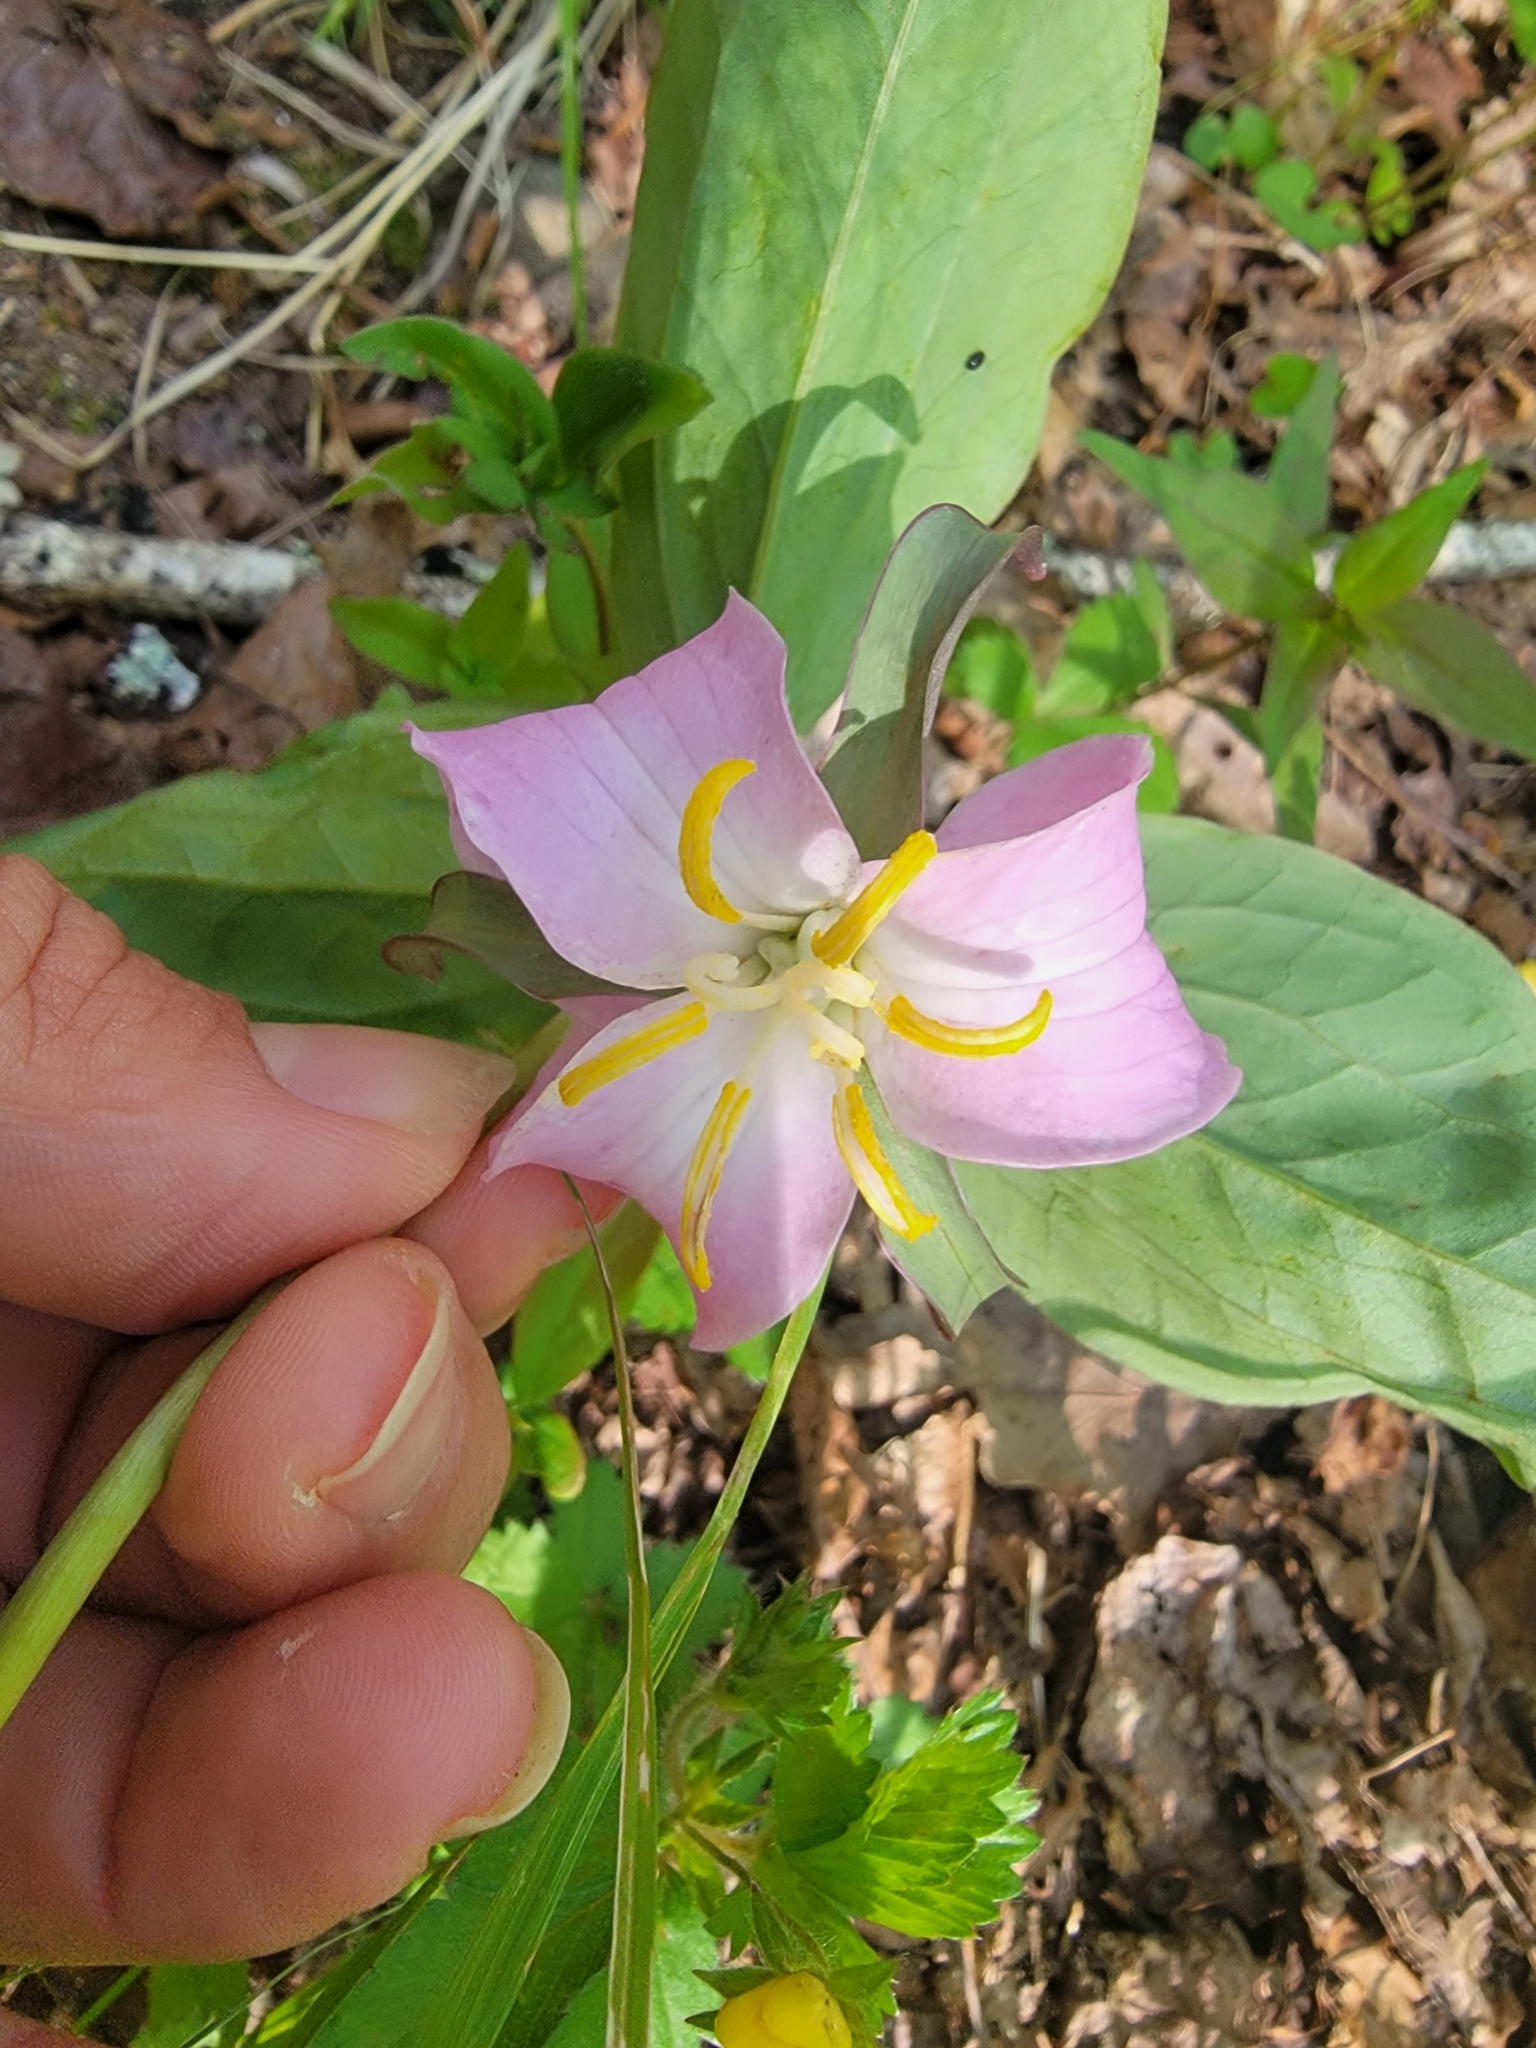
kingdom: Plantae
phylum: Tracheophyta
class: Liliopsida
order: Liliales
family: Melanthiaceae
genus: Trillium
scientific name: Trillium catesbaei
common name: Bashful trillium
